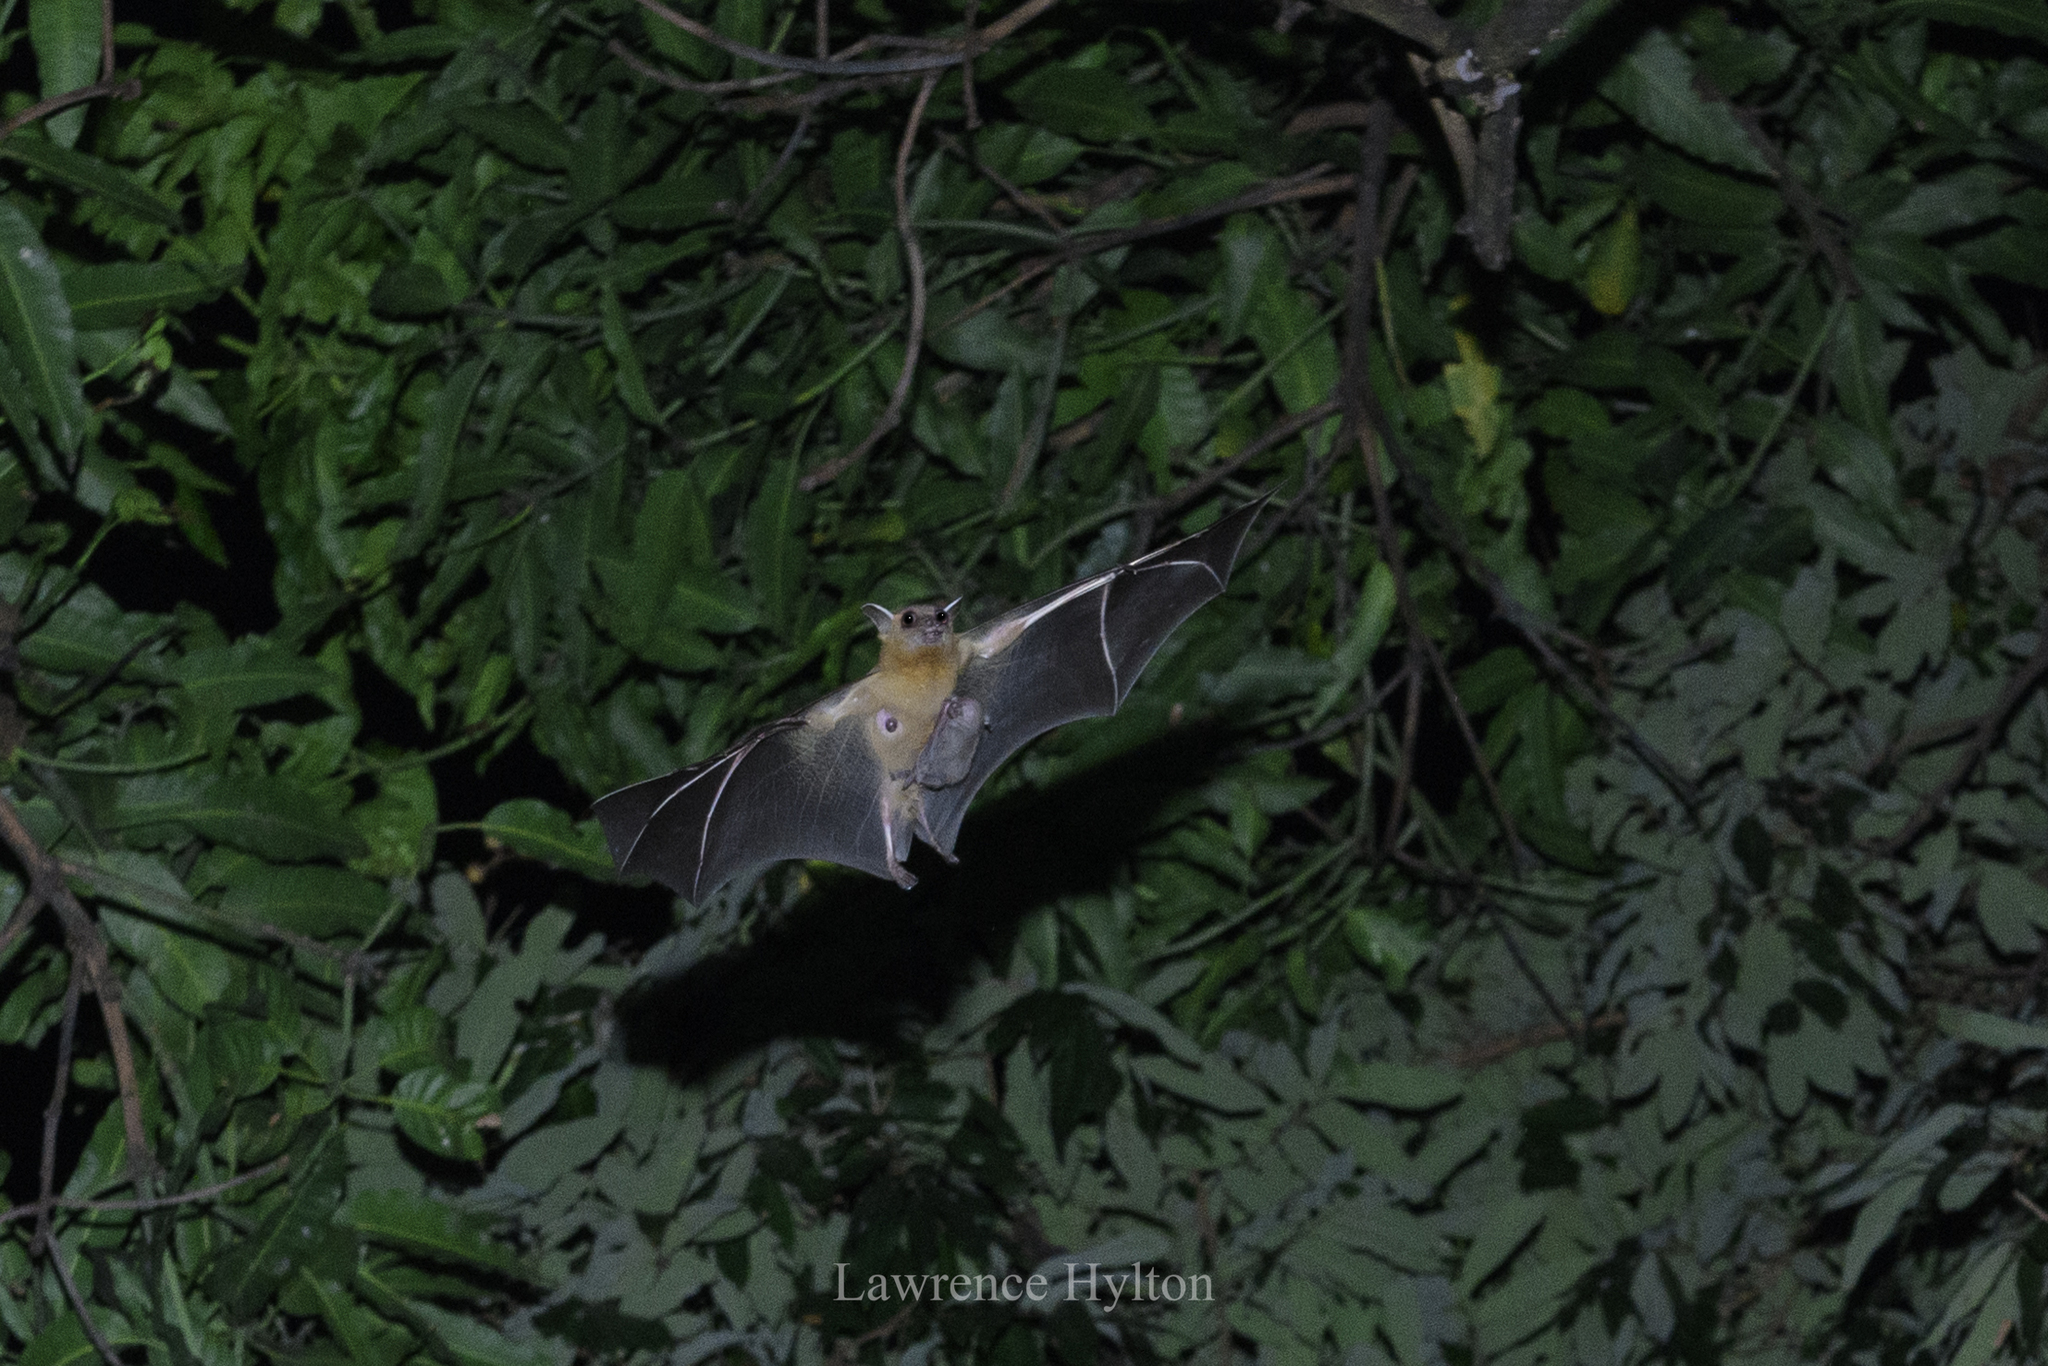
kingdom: Animalia
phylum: Chordata
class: Mammalia
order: Chiroptera
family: Pteropodidae
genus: Cynopterus
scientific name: Cynopterus sphinx
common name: Greater short-nosed fruit bat
